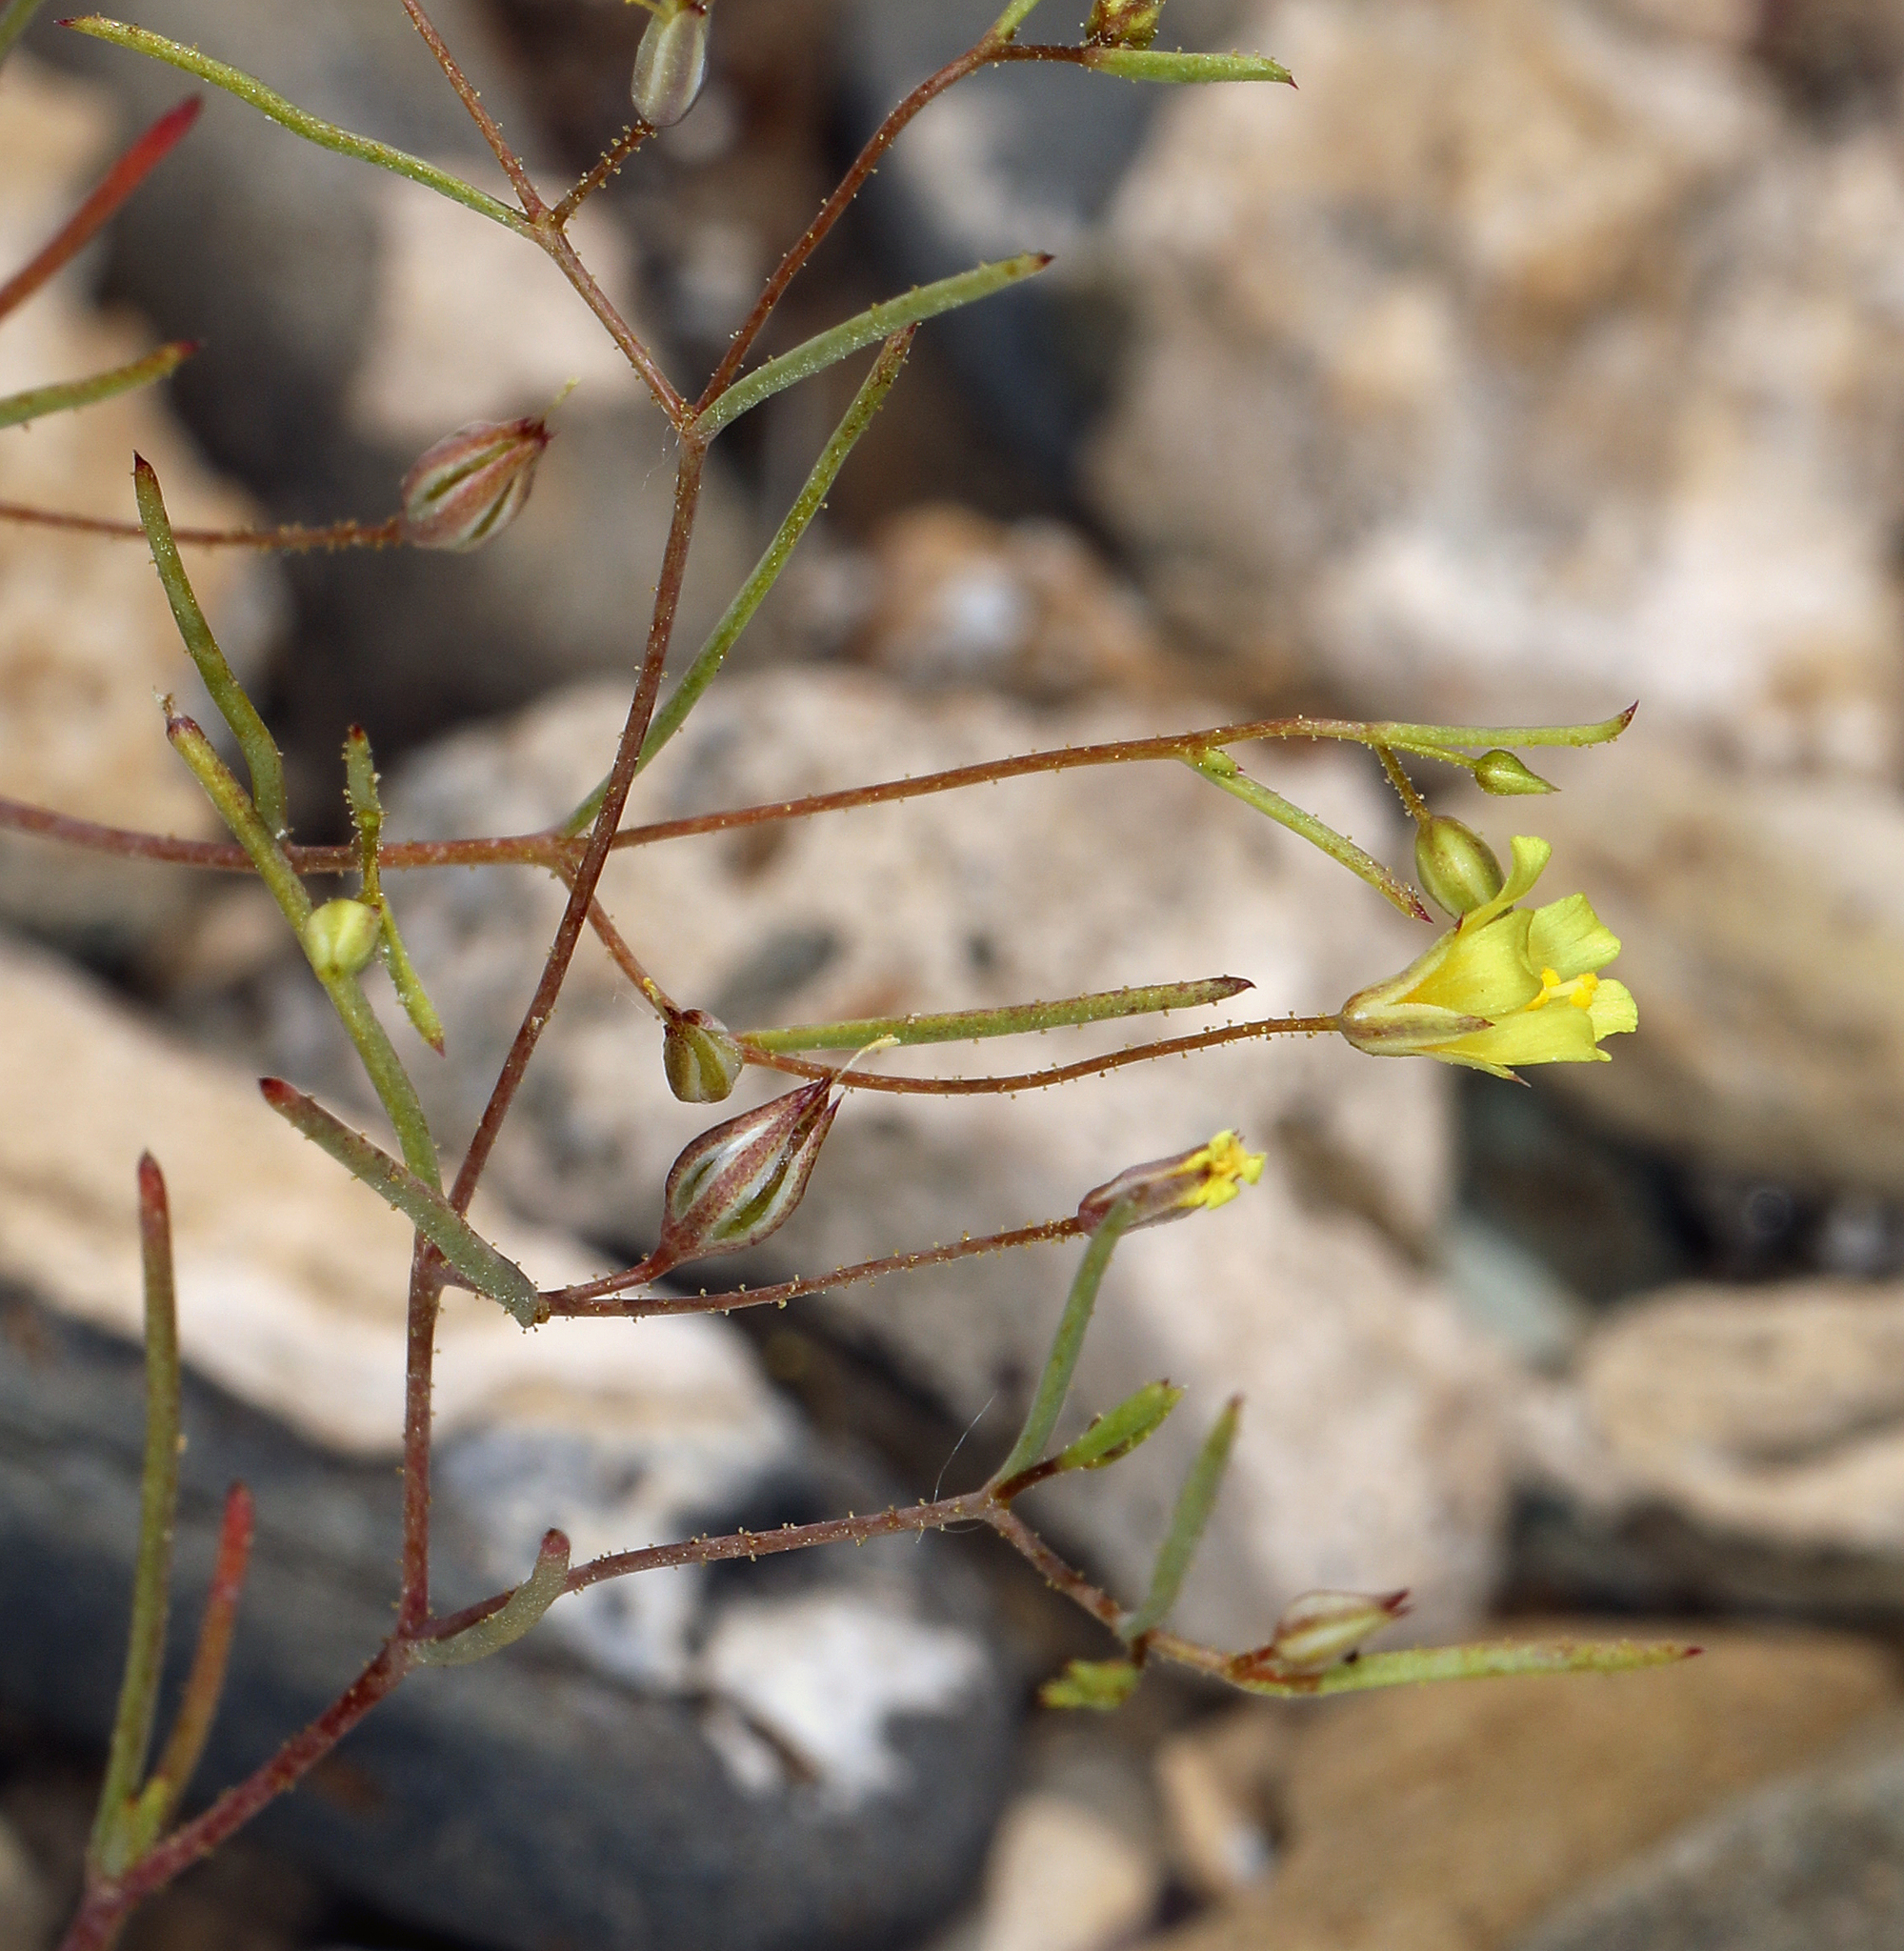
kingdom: Plantae
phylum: Tracheophyta
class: Magnoliopsida
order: Ericales
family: Polemoniaceae
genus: Linanthus
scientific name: Linanthus filiformis
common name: Yellow gilia
